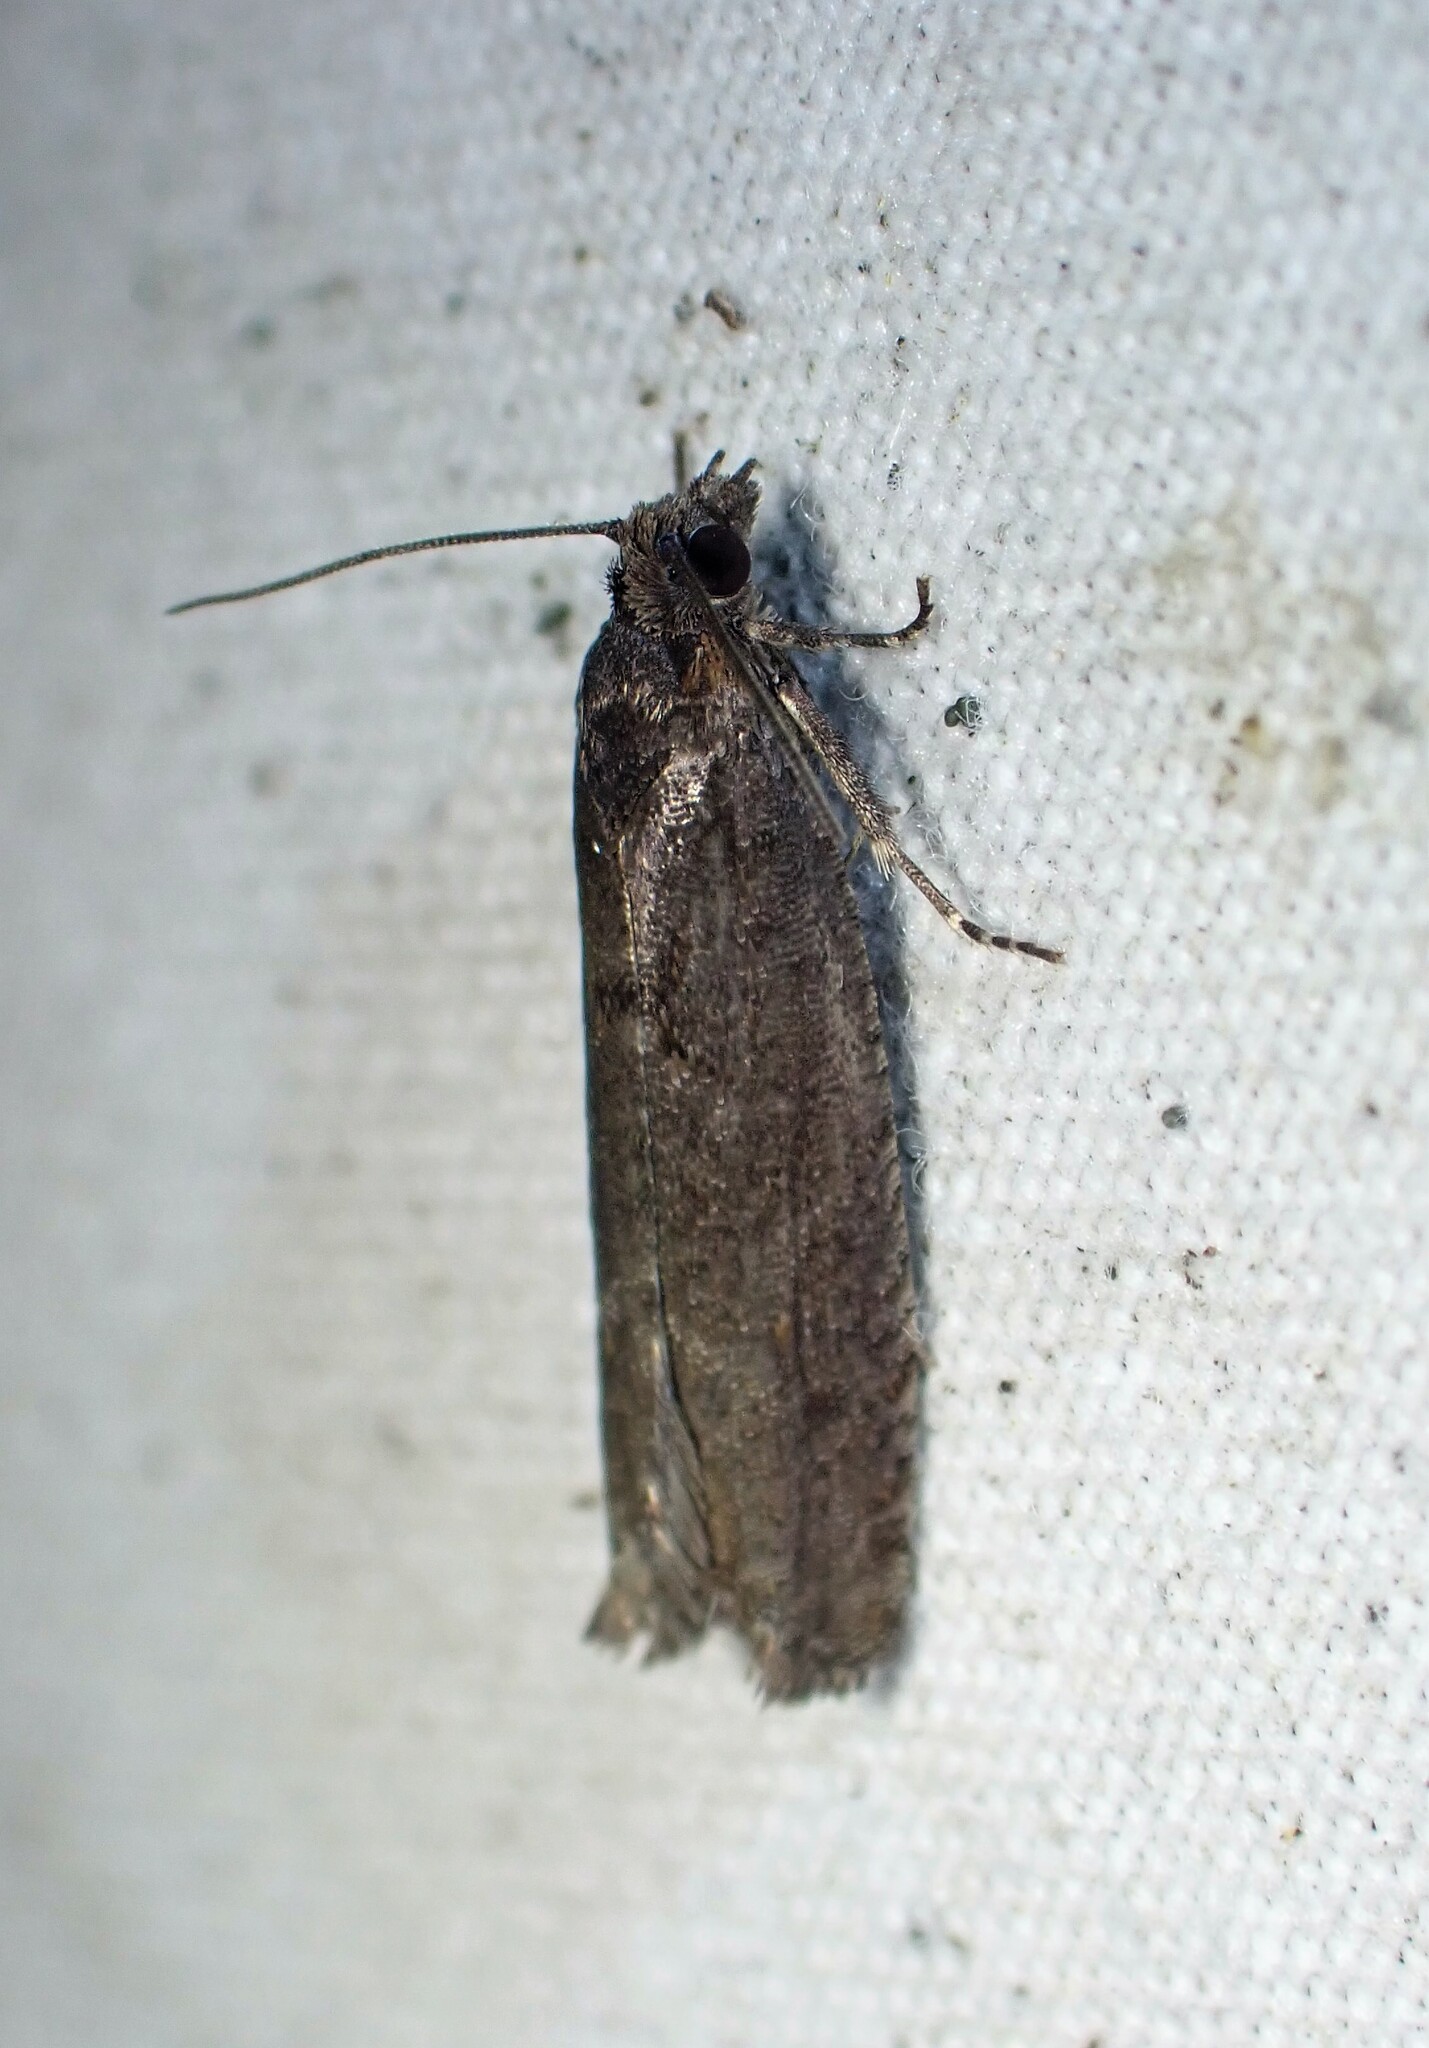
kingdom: Animalia
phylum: Arthropoda
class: Insecta
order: Lepidoptera
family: Tortricidae
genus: Pseudexentera
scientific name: Pseudexentera oregonana
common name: Early aspen leafcurler
